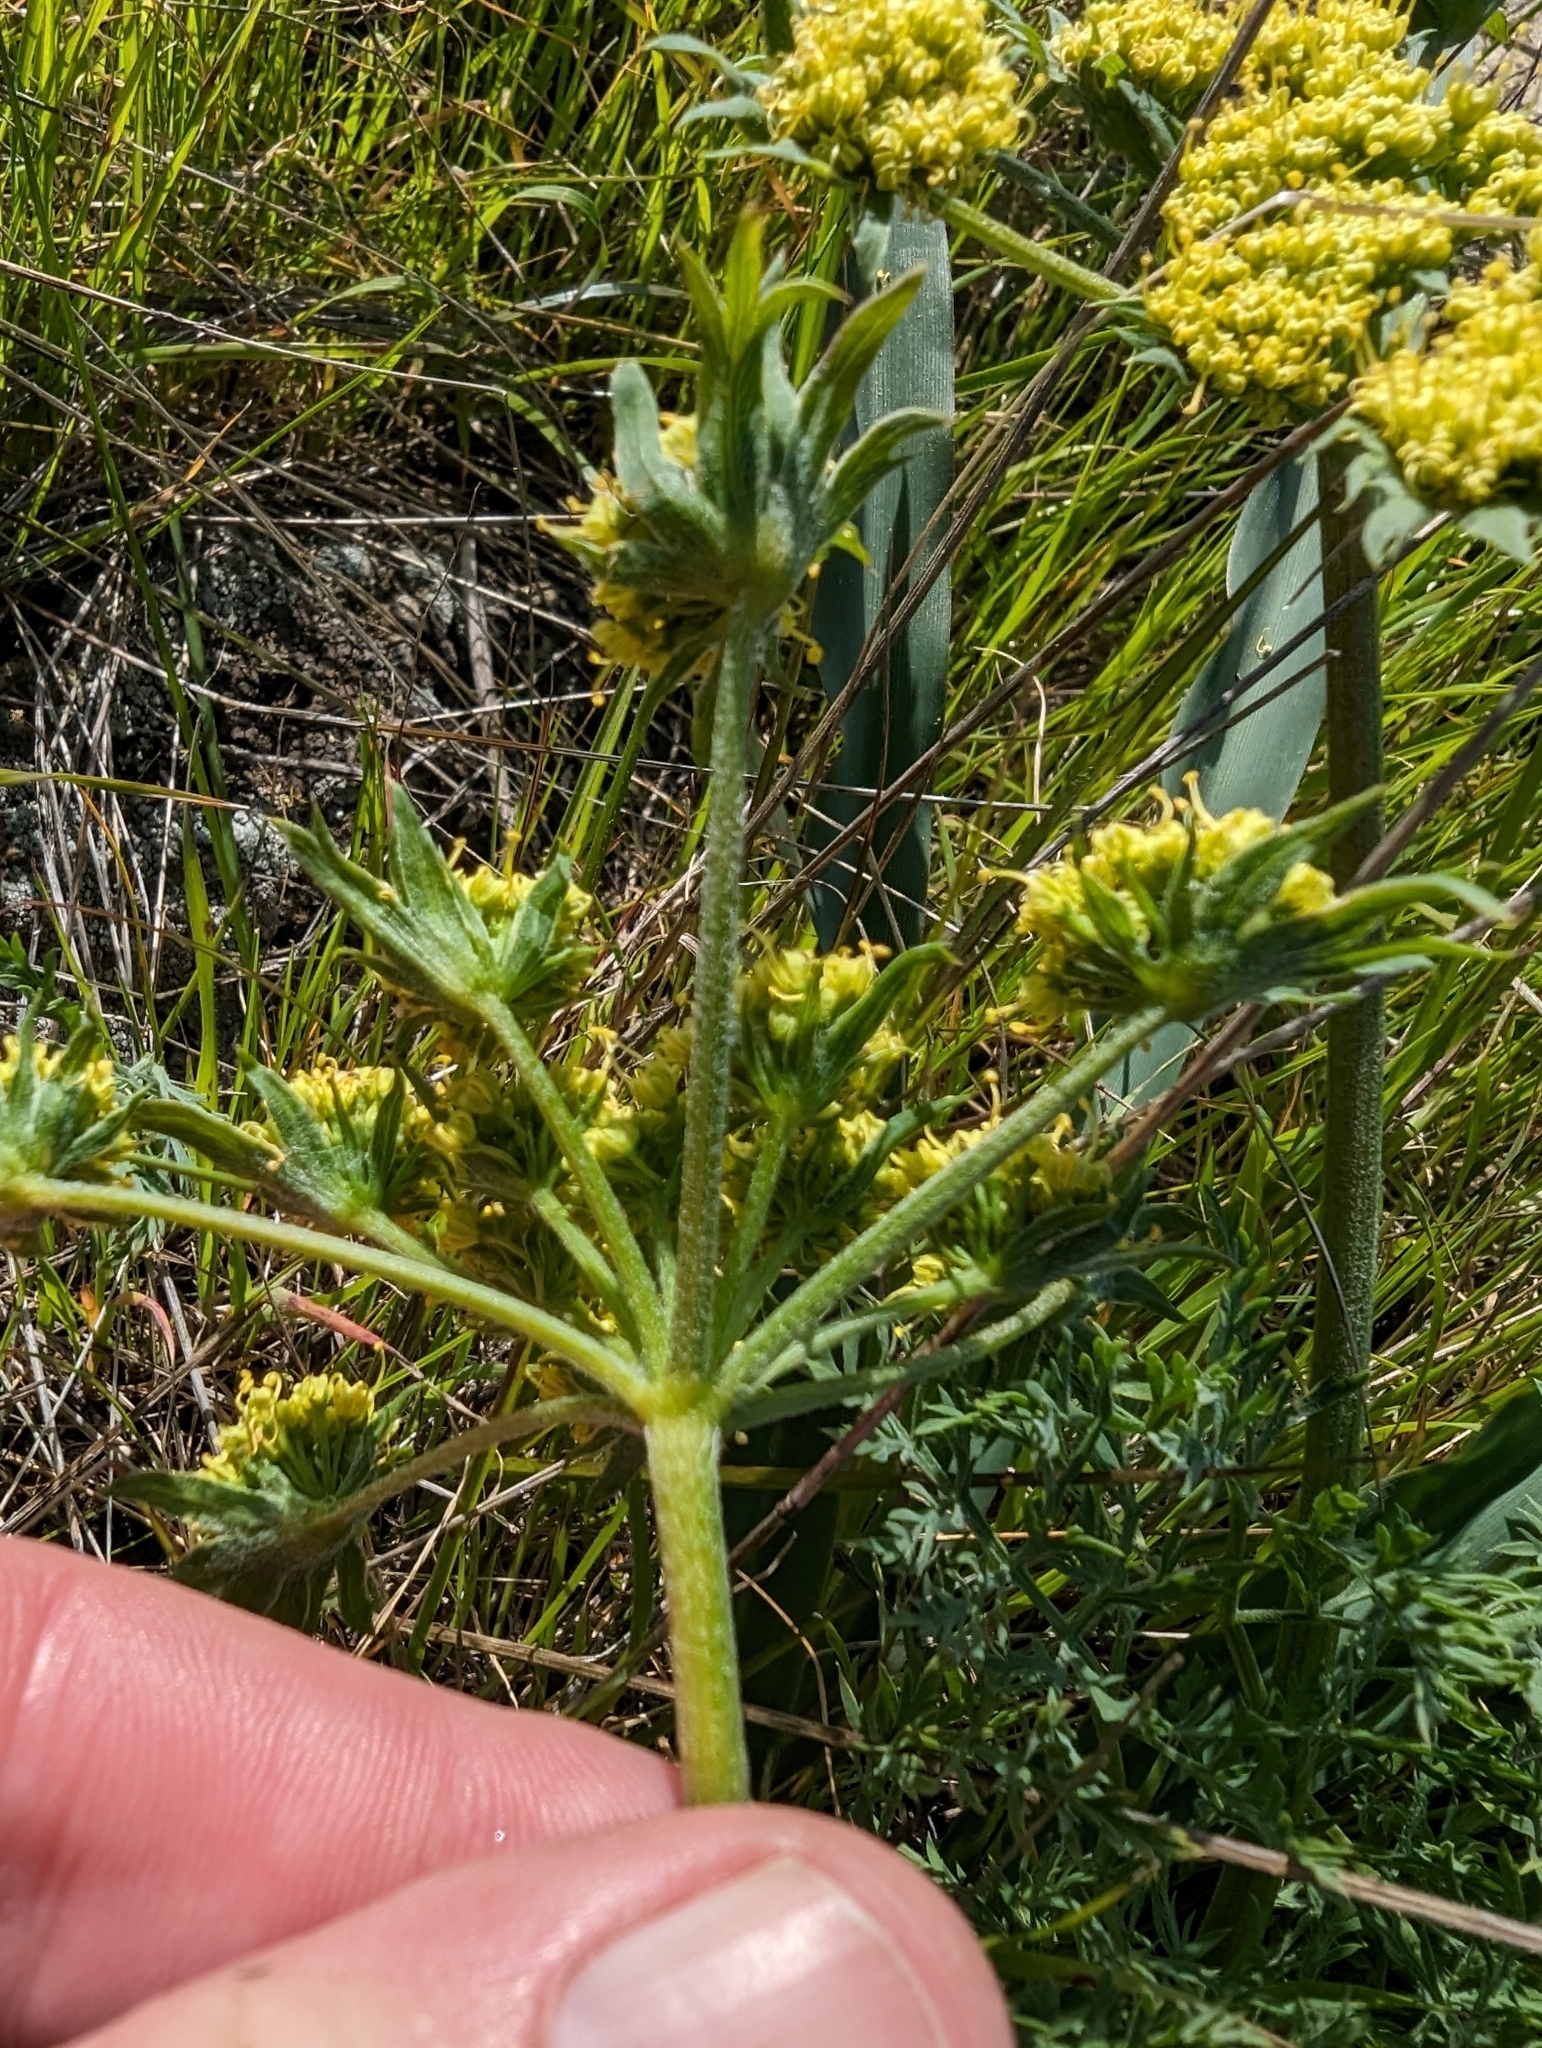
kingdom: Plantae
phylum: Tracheophyta
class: Magnoliopsida
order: Apiales
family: Apiaceae
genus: Lomatium
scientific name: Lomatium macrocarpum
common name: Big-seed biscuitroot
